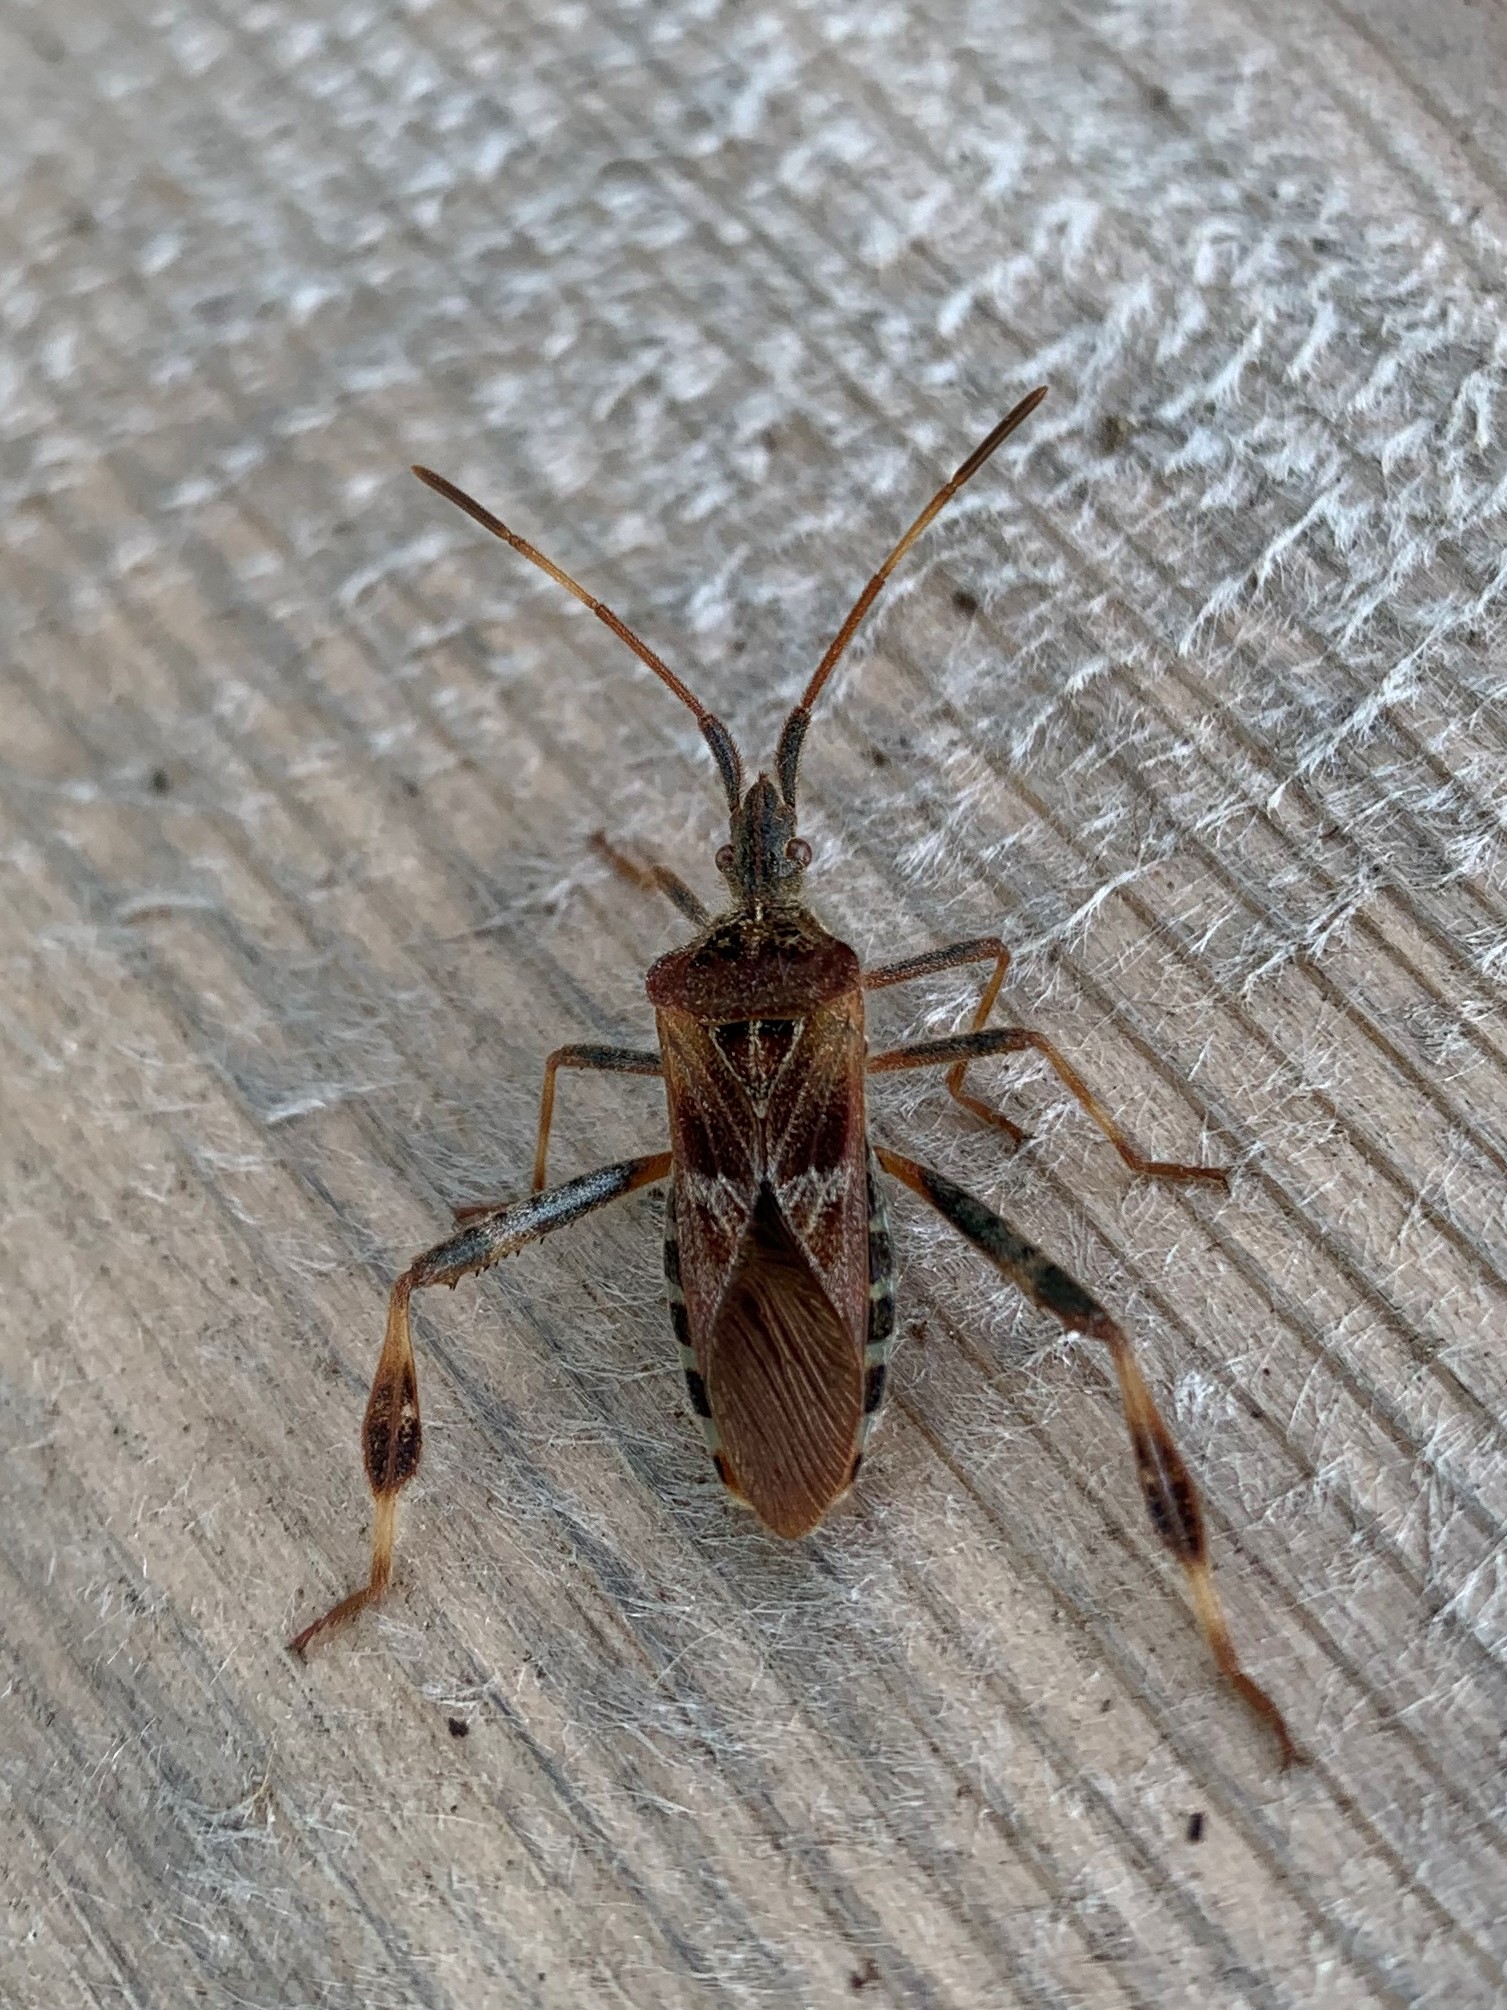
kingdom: Animalia
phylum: Arthropoda
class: Insecta
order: Hemiptera
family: Coreidae
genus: Leptoglossus
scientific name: Leptoglossus occidentalis
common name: Western conifer-seed bug
